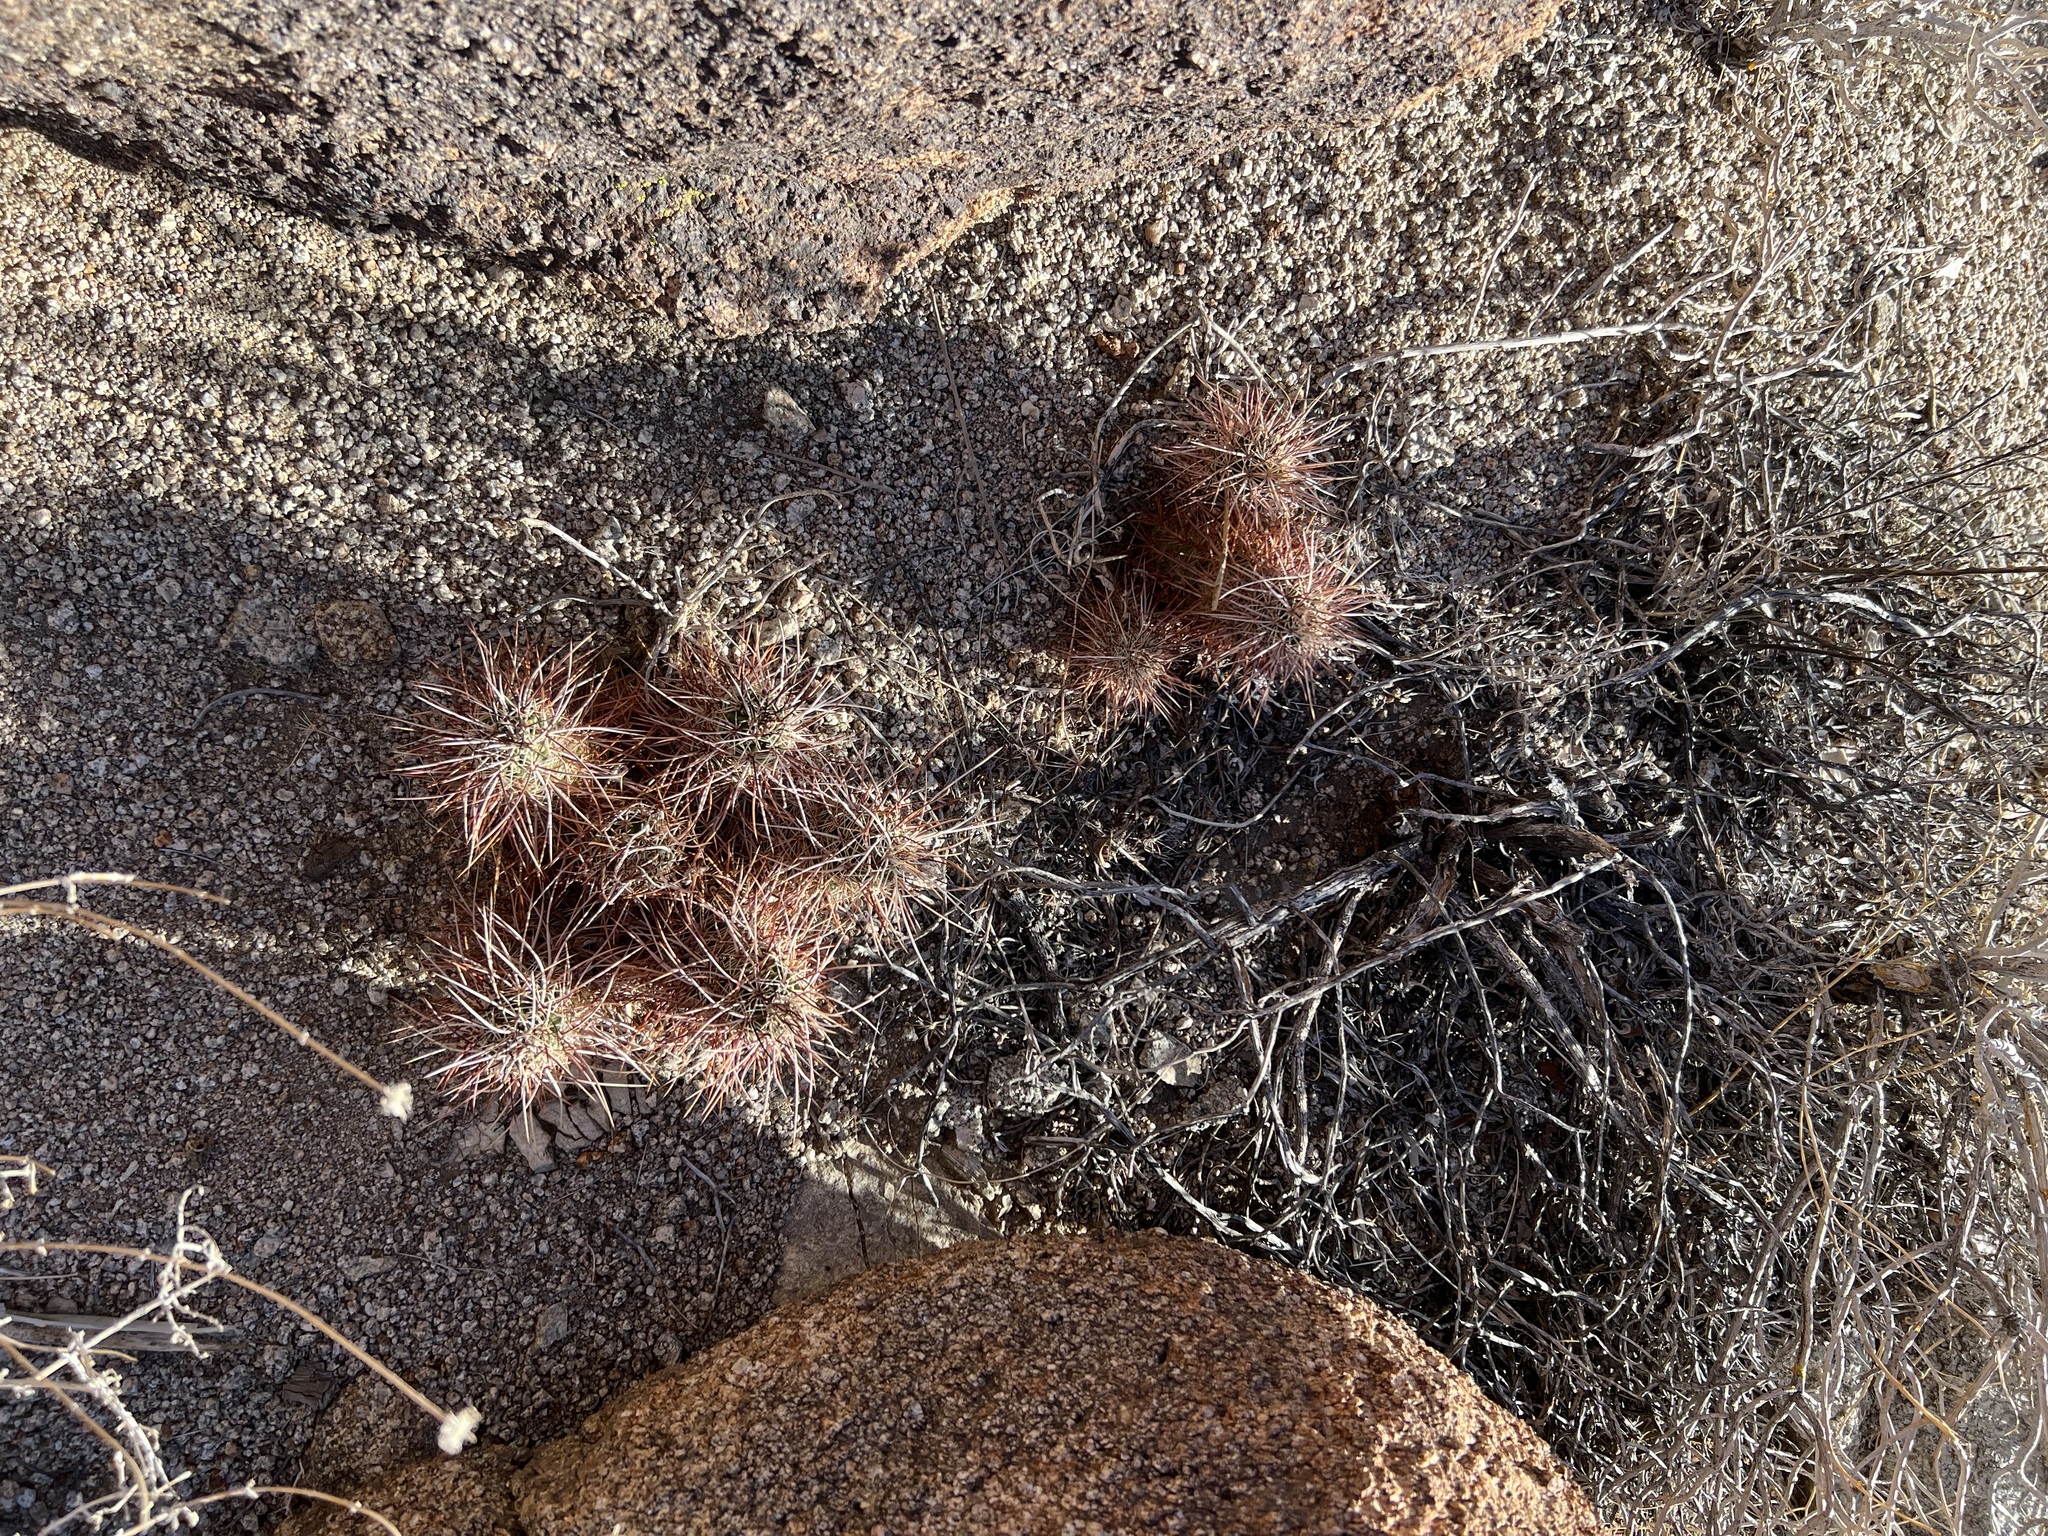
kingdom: Plantae
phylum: Tracheophyta
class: Magnoliopsida
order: Caryophyllales
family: Cactaceae
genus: Echinocereus
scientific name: Echinocereus engelmannii
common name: Engelmann's hedgehog cactus
